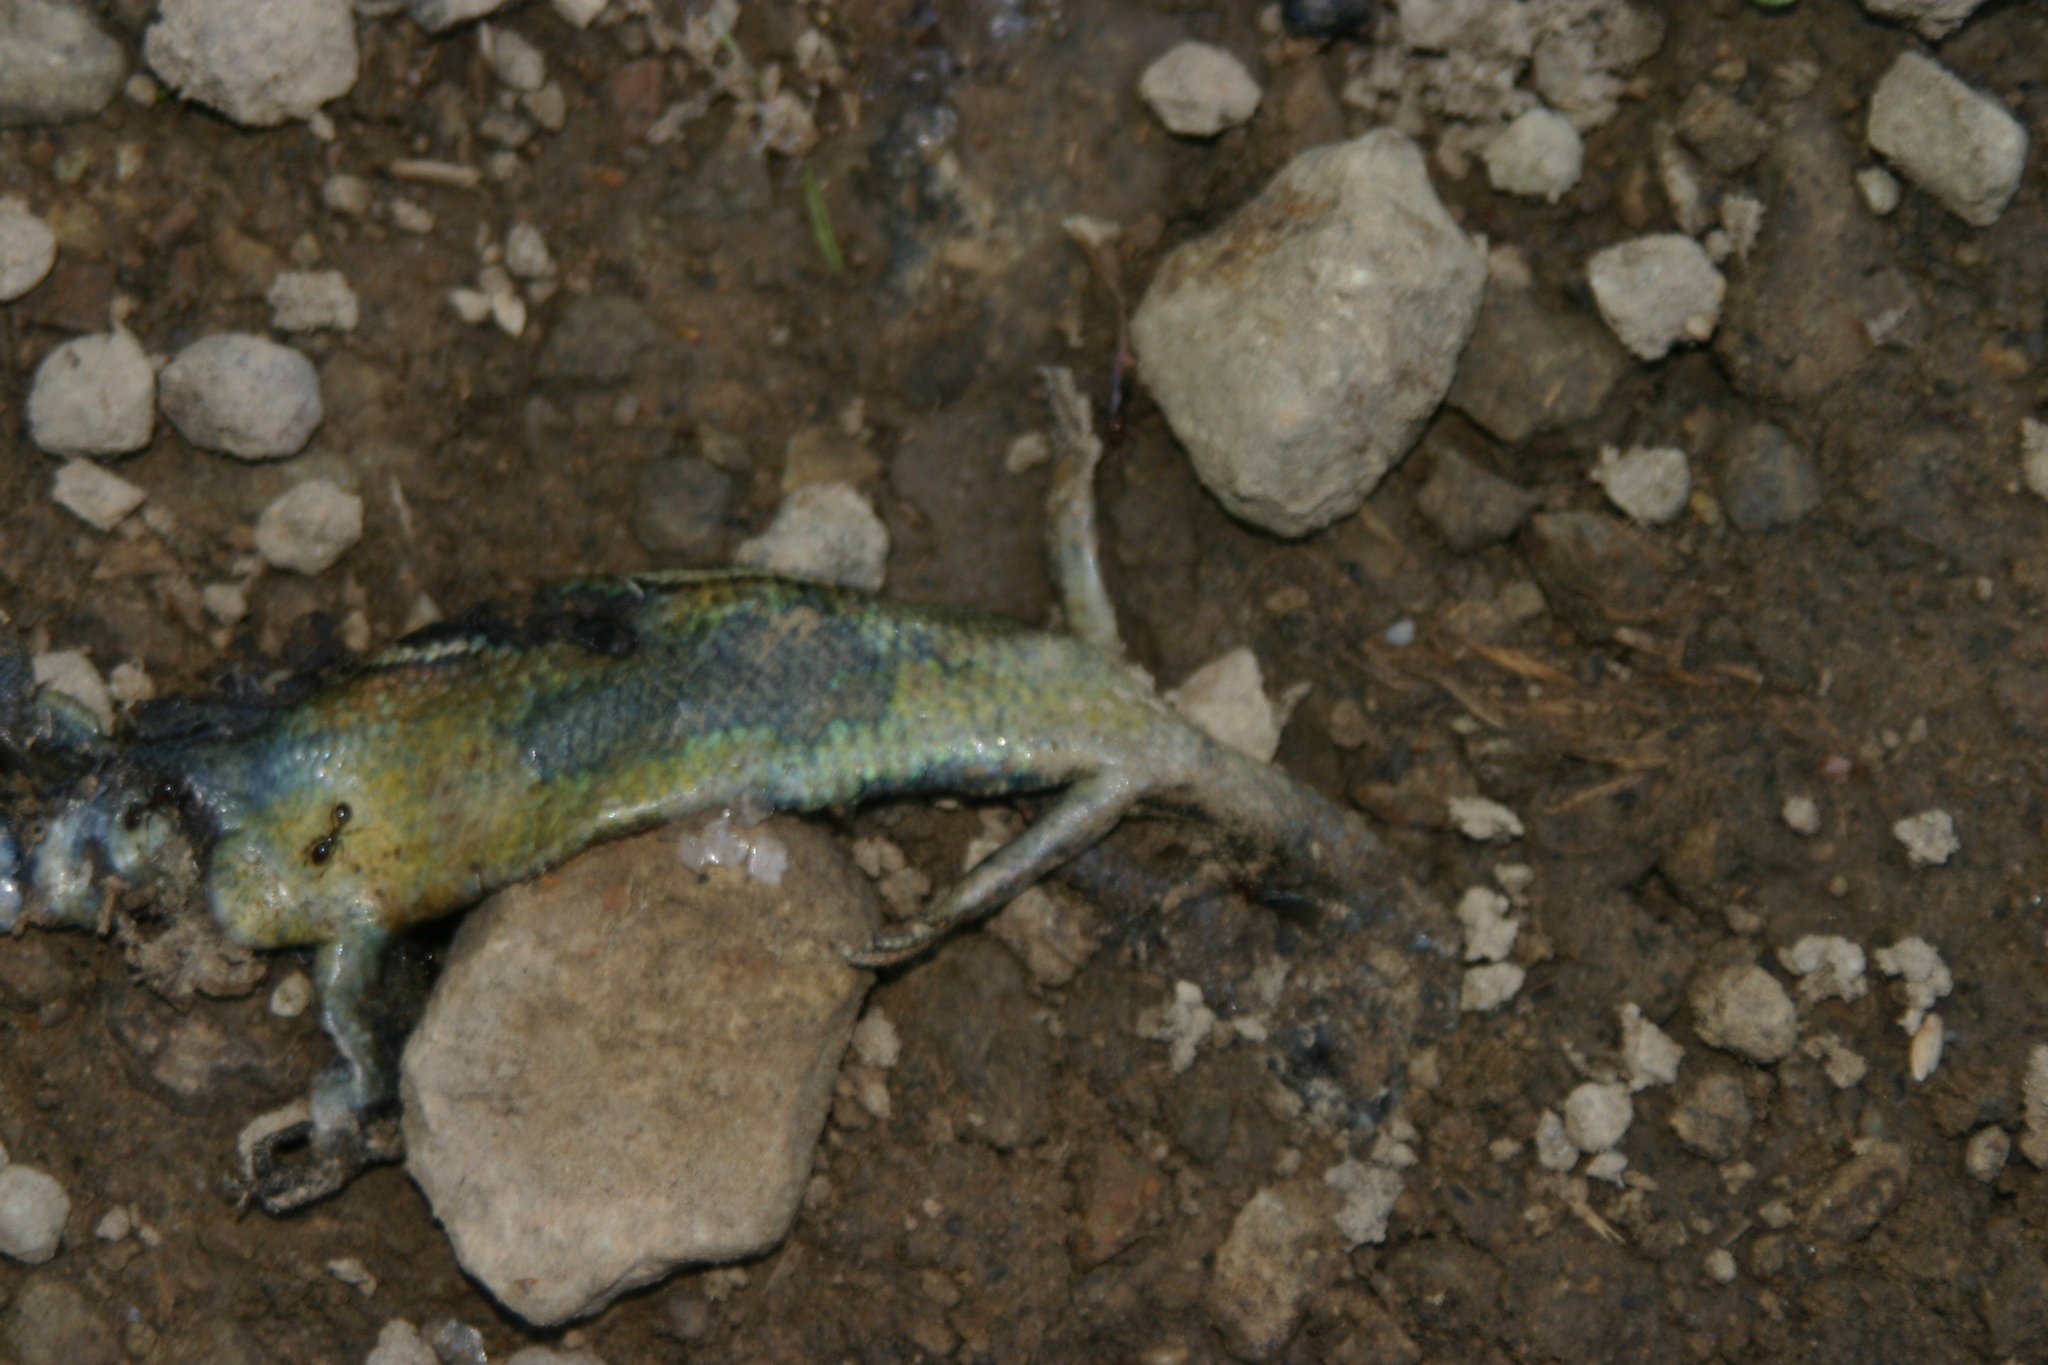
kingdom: Animalia
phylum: Chordata
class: Squamata
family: Scincidae
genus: Oligosoma
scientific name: Oligosoma polychroma
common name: Common new zealand skink
